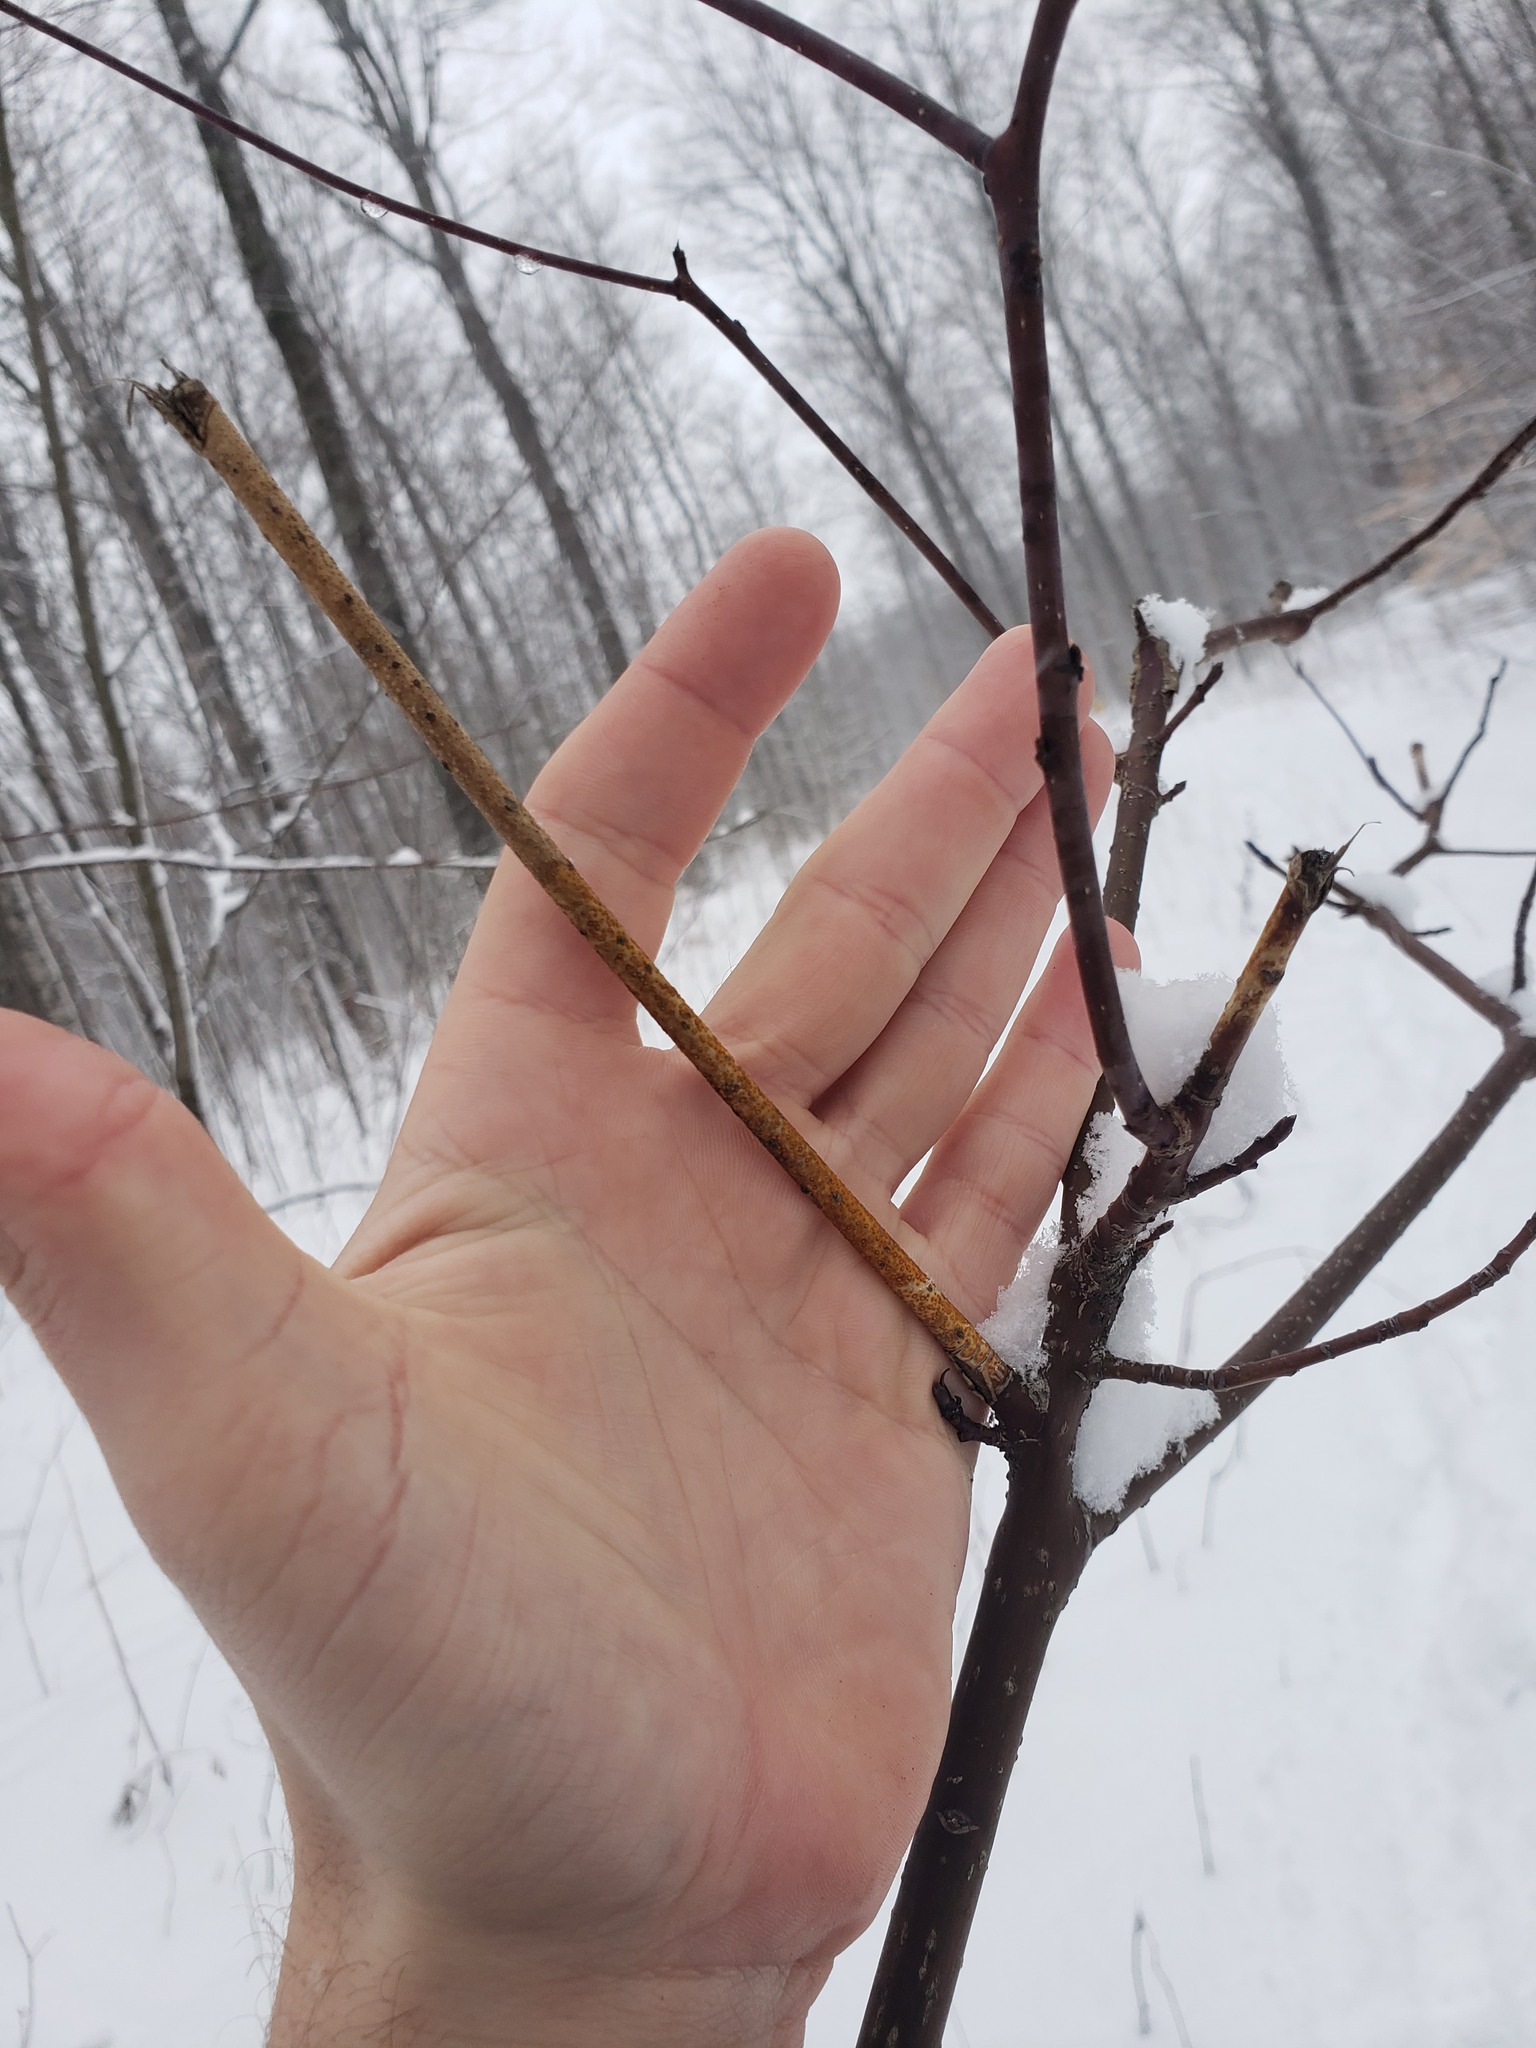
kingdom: Fungi
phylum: Ascomycota
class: Sordariomycetes
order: Diaporthales
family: Cryphonectriaceae
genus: Aurantioporthe
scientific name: Aurantioporthe corni
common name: Dogwood golden canker
